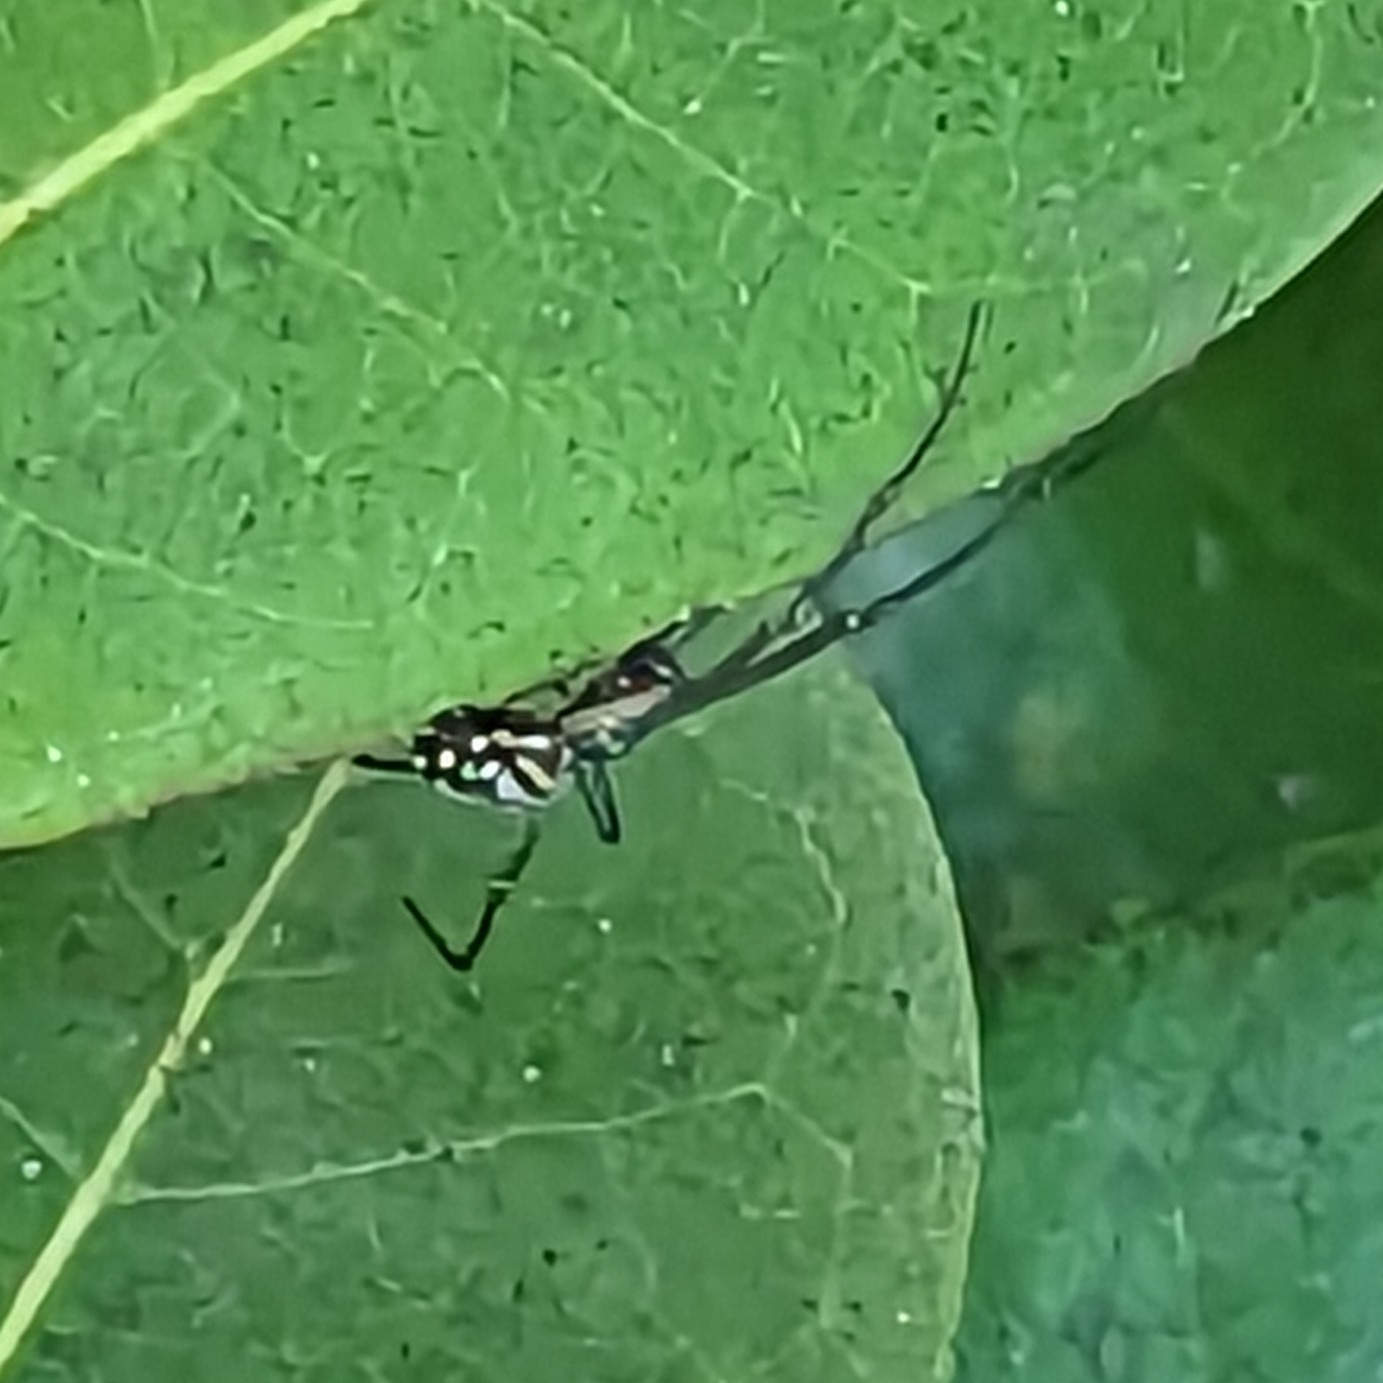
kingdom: Animalia
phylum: Arthropoda
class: Arachnida
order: Araneae
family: Tetragnathidae
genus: Leucauge
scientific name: Leucauge argyra
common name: Longjawed orb weavers
